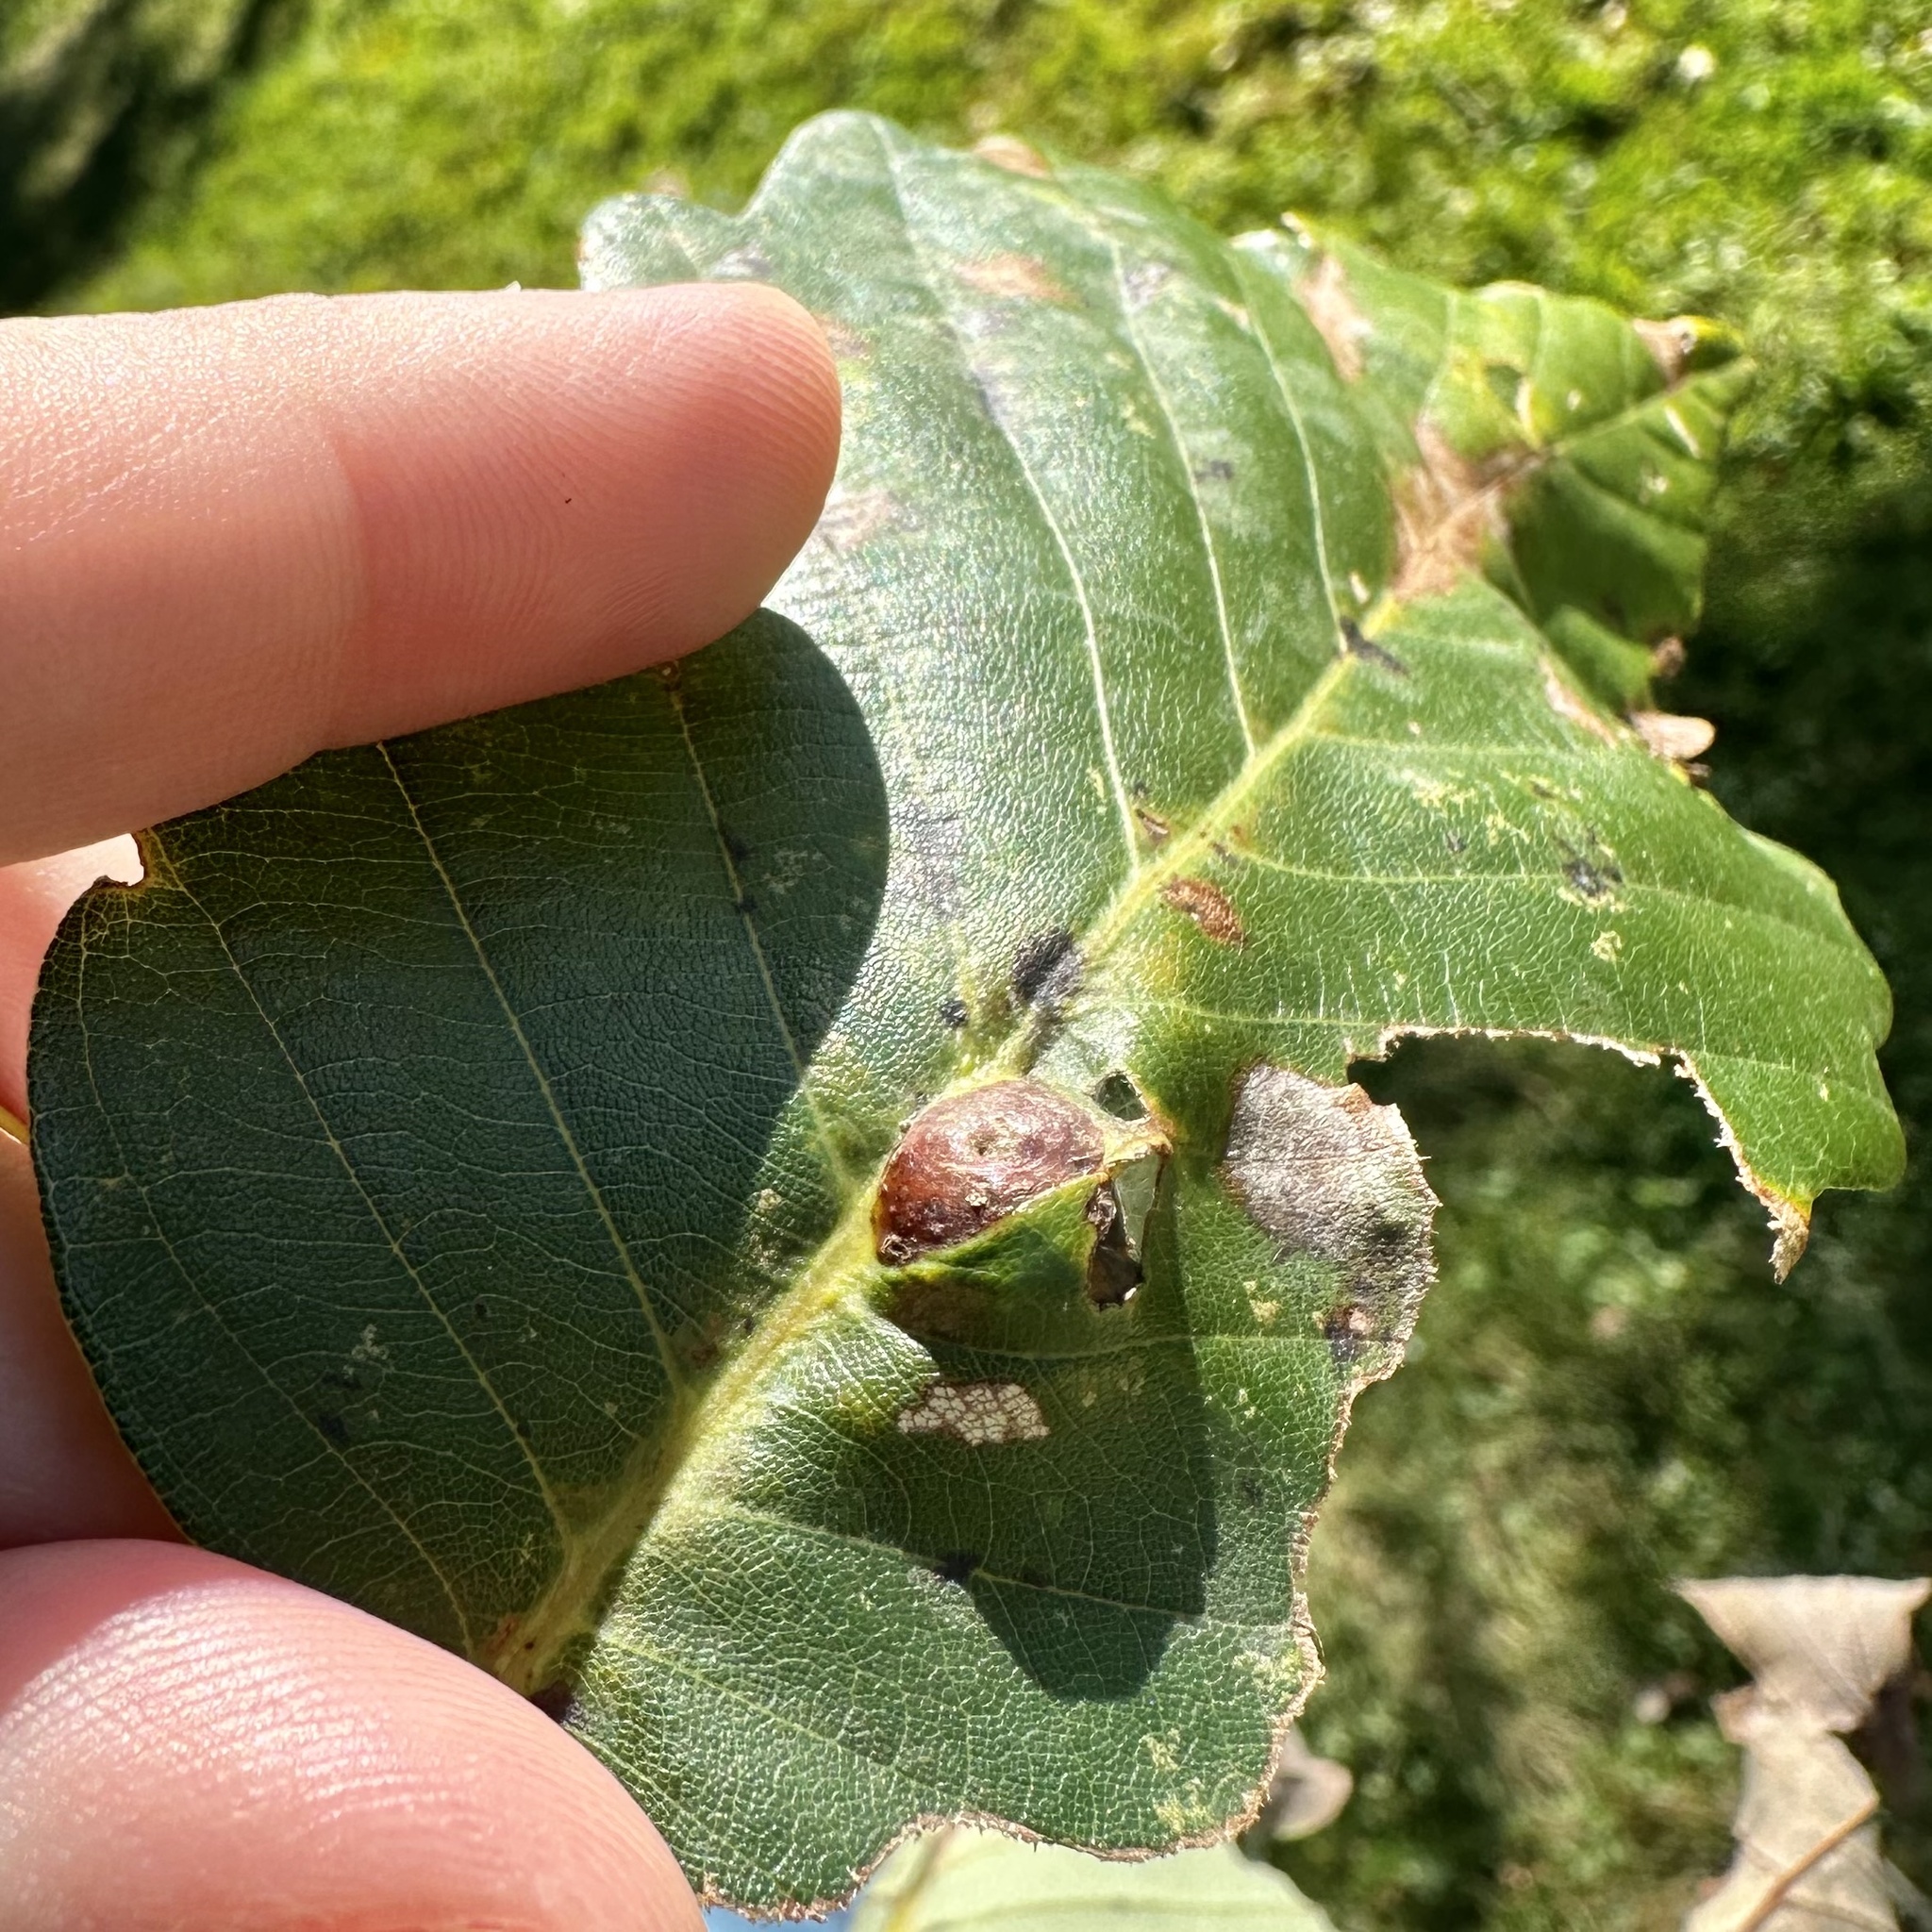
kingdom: Animalia
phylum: Arthropoda
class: Insecta
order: Hymenoptera
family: Cynipidae
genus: Andricus
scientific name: Andricus
